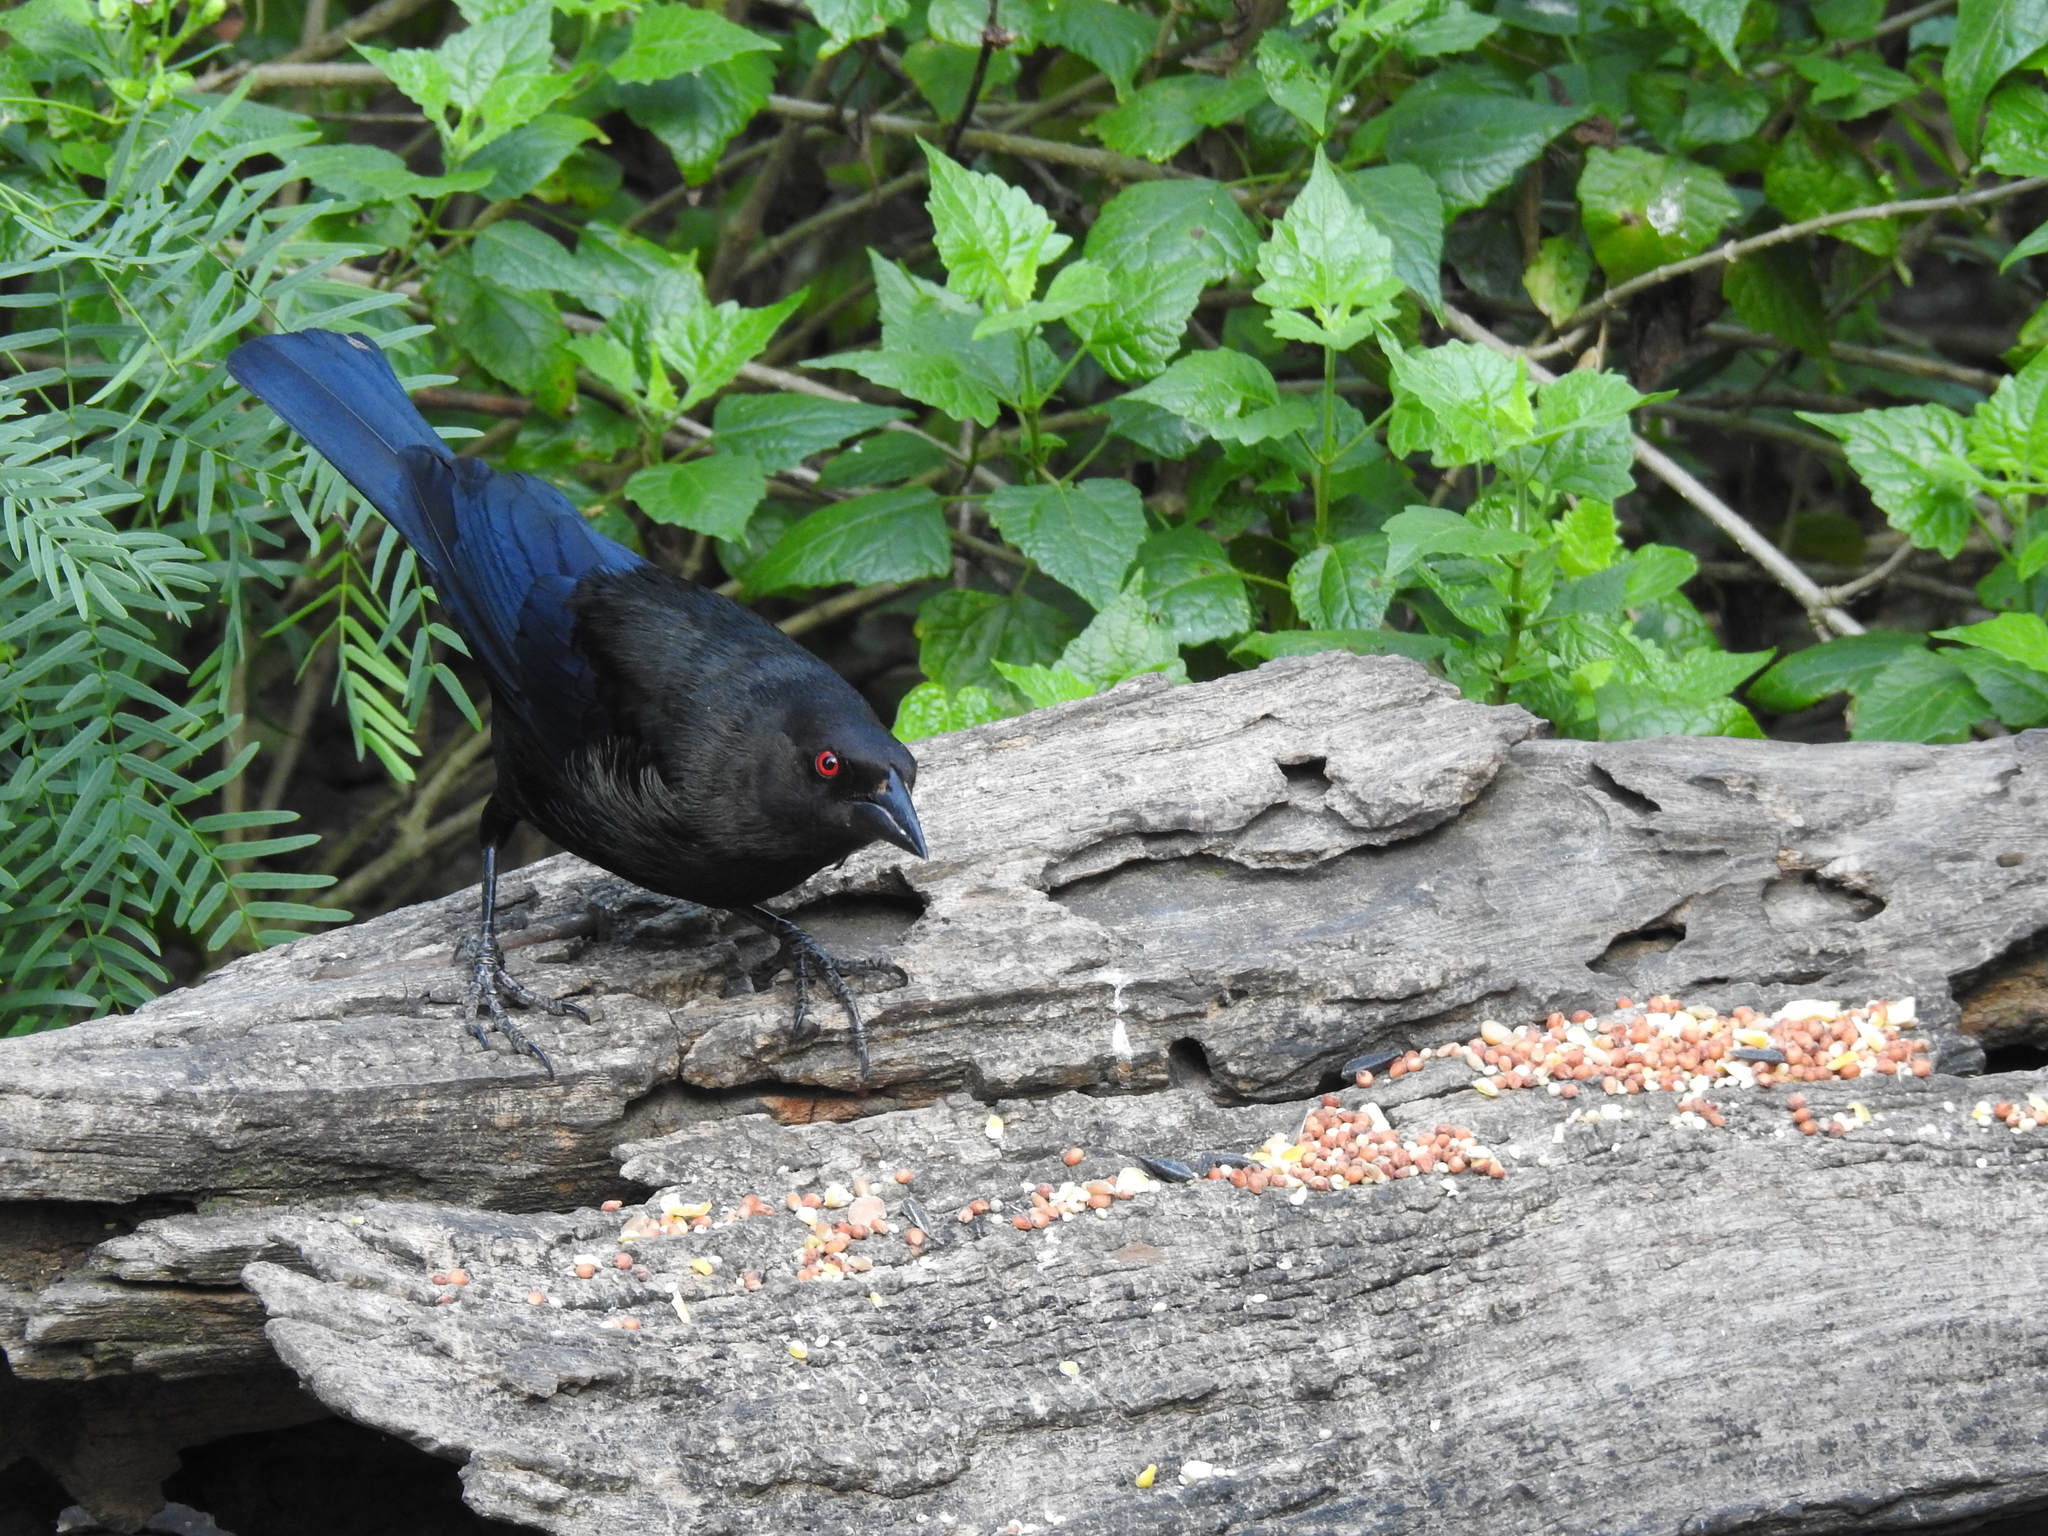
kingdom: Animalia
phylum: Chordata
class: Aves
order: Passeriformes
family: Icteridae
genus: Molothrus
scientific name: Molothrus aeneus
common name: Bronzed cowbird
